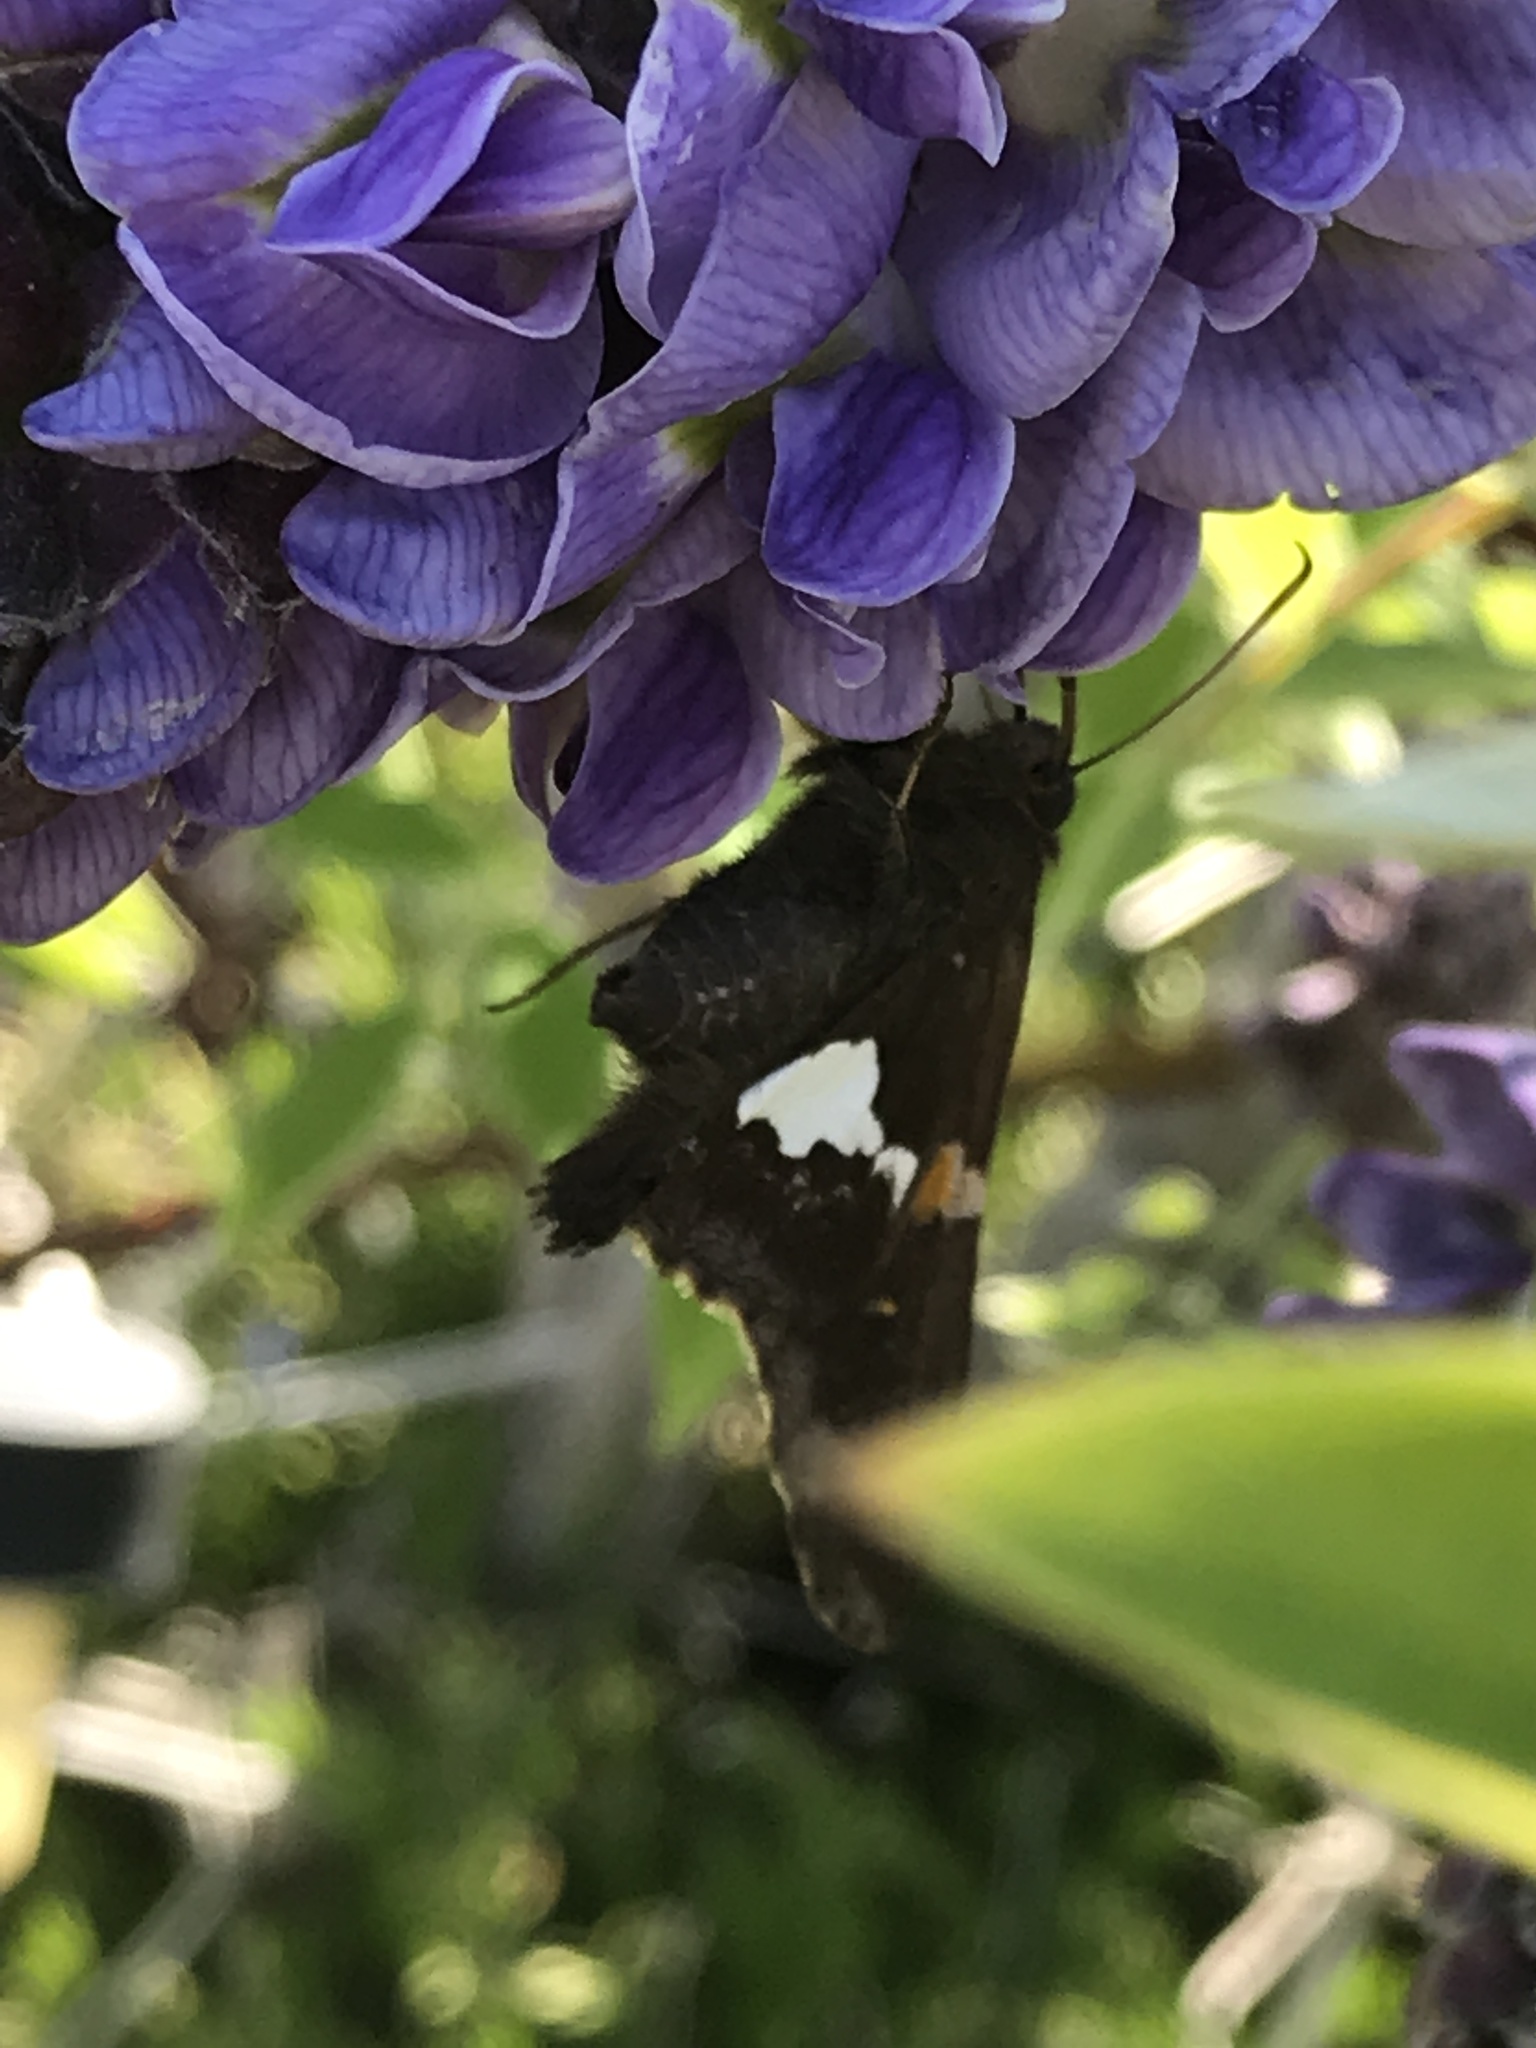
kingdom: Animalia
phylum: Arthropoda
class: Insecta
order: Lepidoptera
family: Hesperiidae
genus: Epargyreus
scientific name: Epargyreus clarus
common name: Silver-spotted skipper
